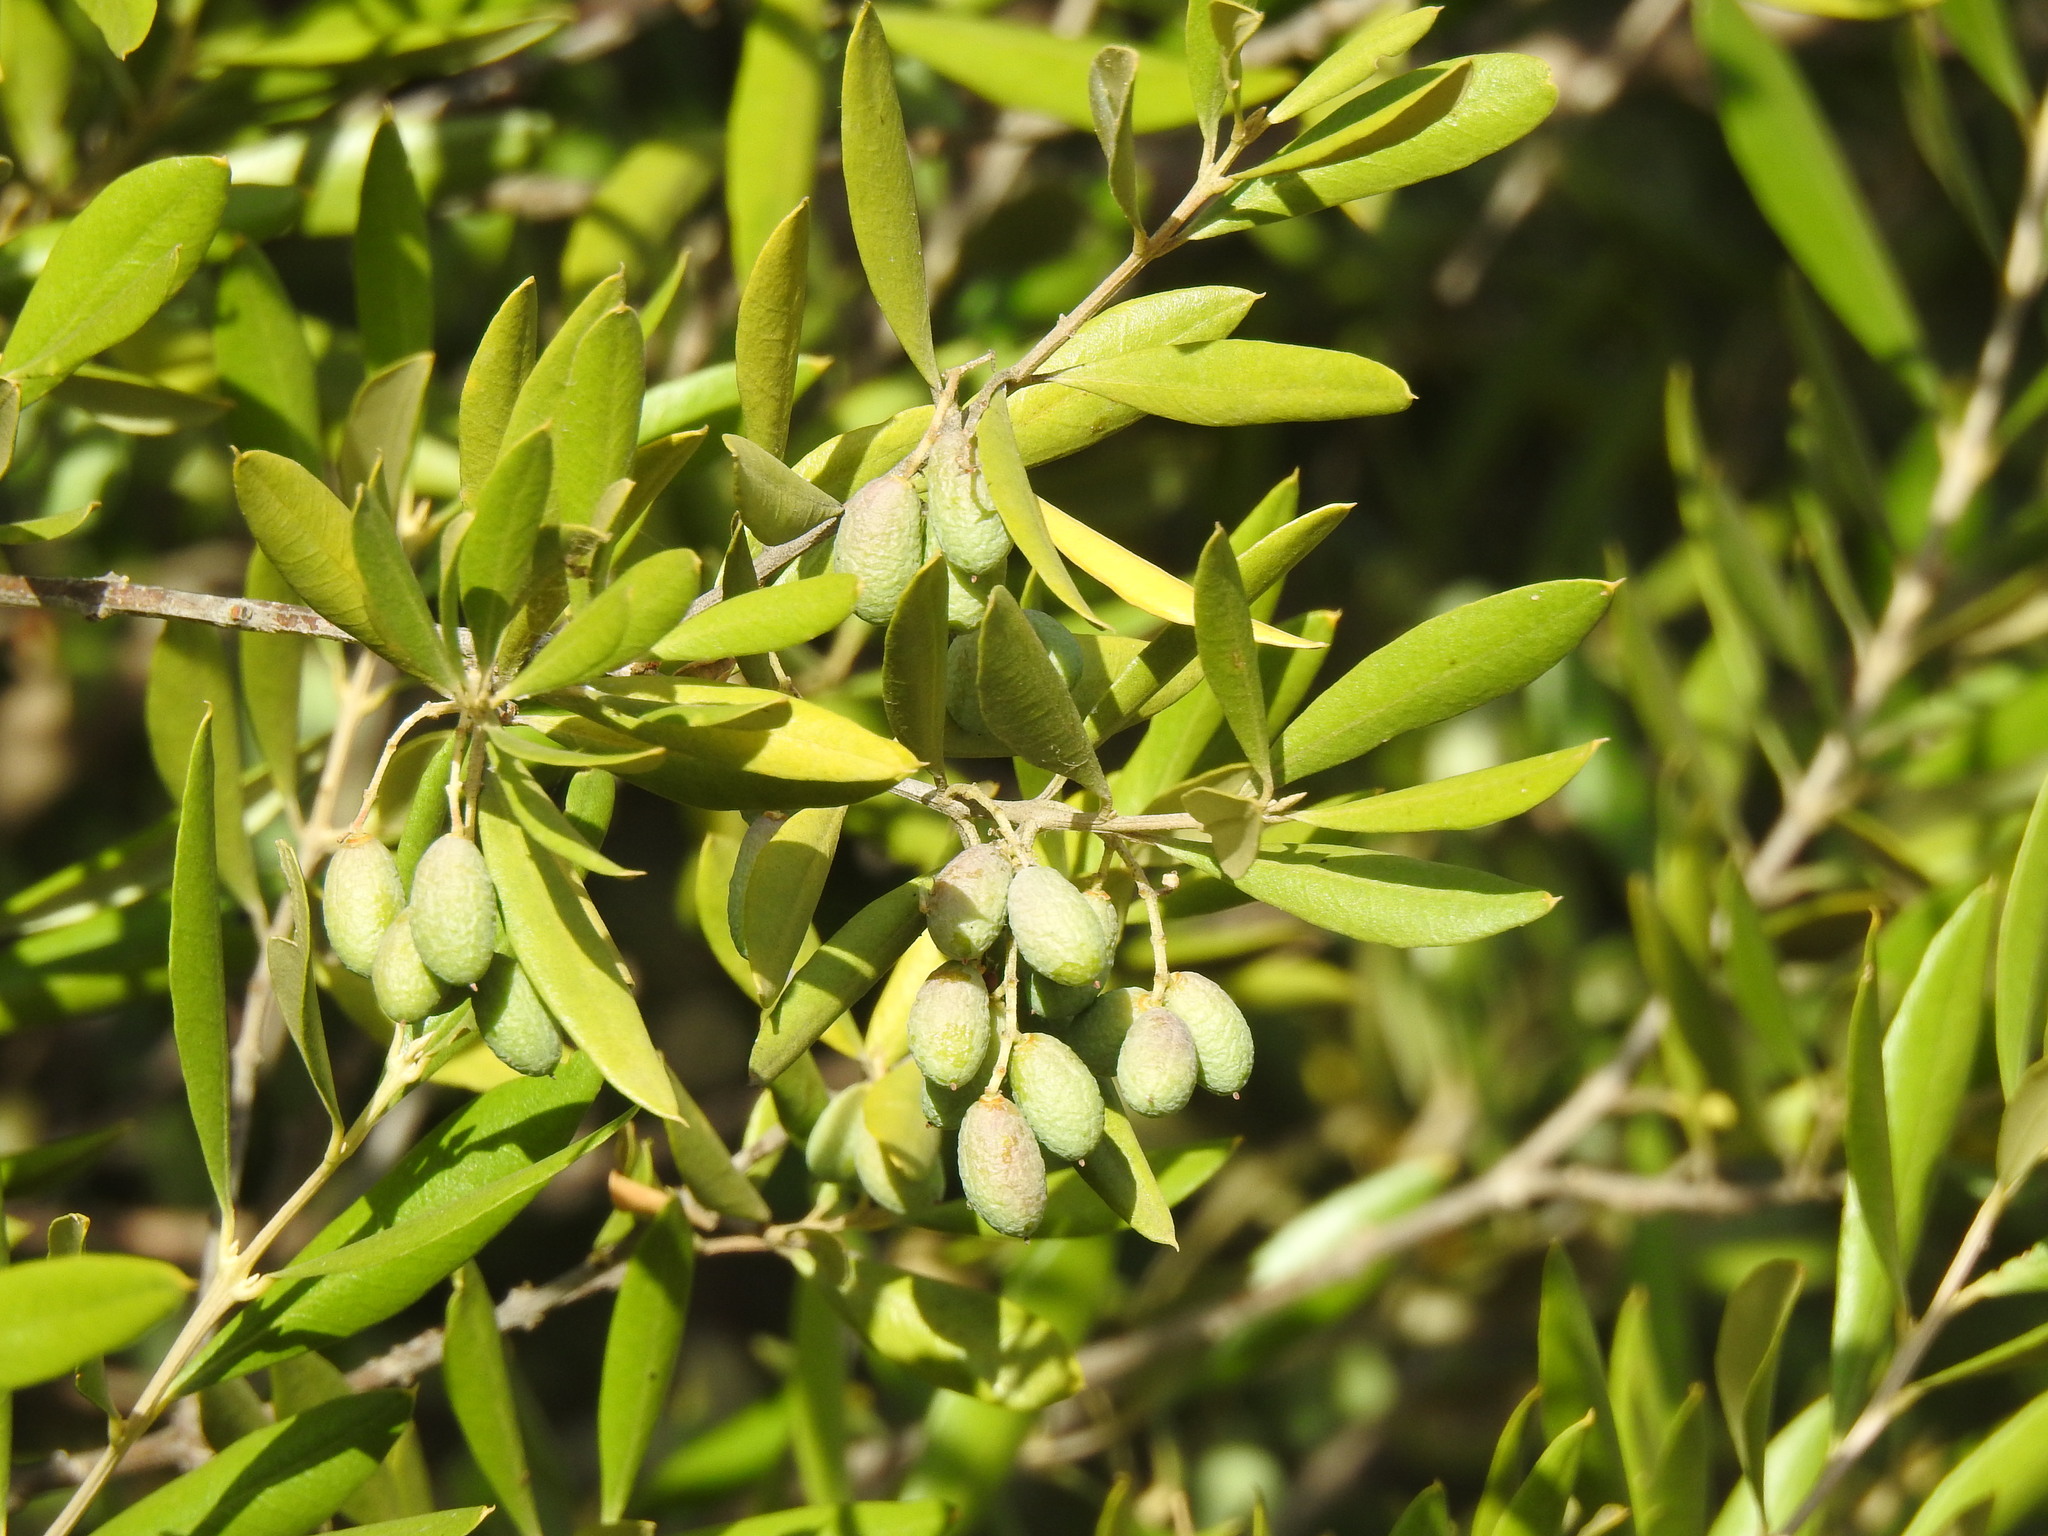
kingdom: Plantae
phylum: Tracheophyta
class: Magnoliopsida
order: Lamiales
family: Oleaceae
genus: Olea
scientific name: Olea europaea
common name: Olive
